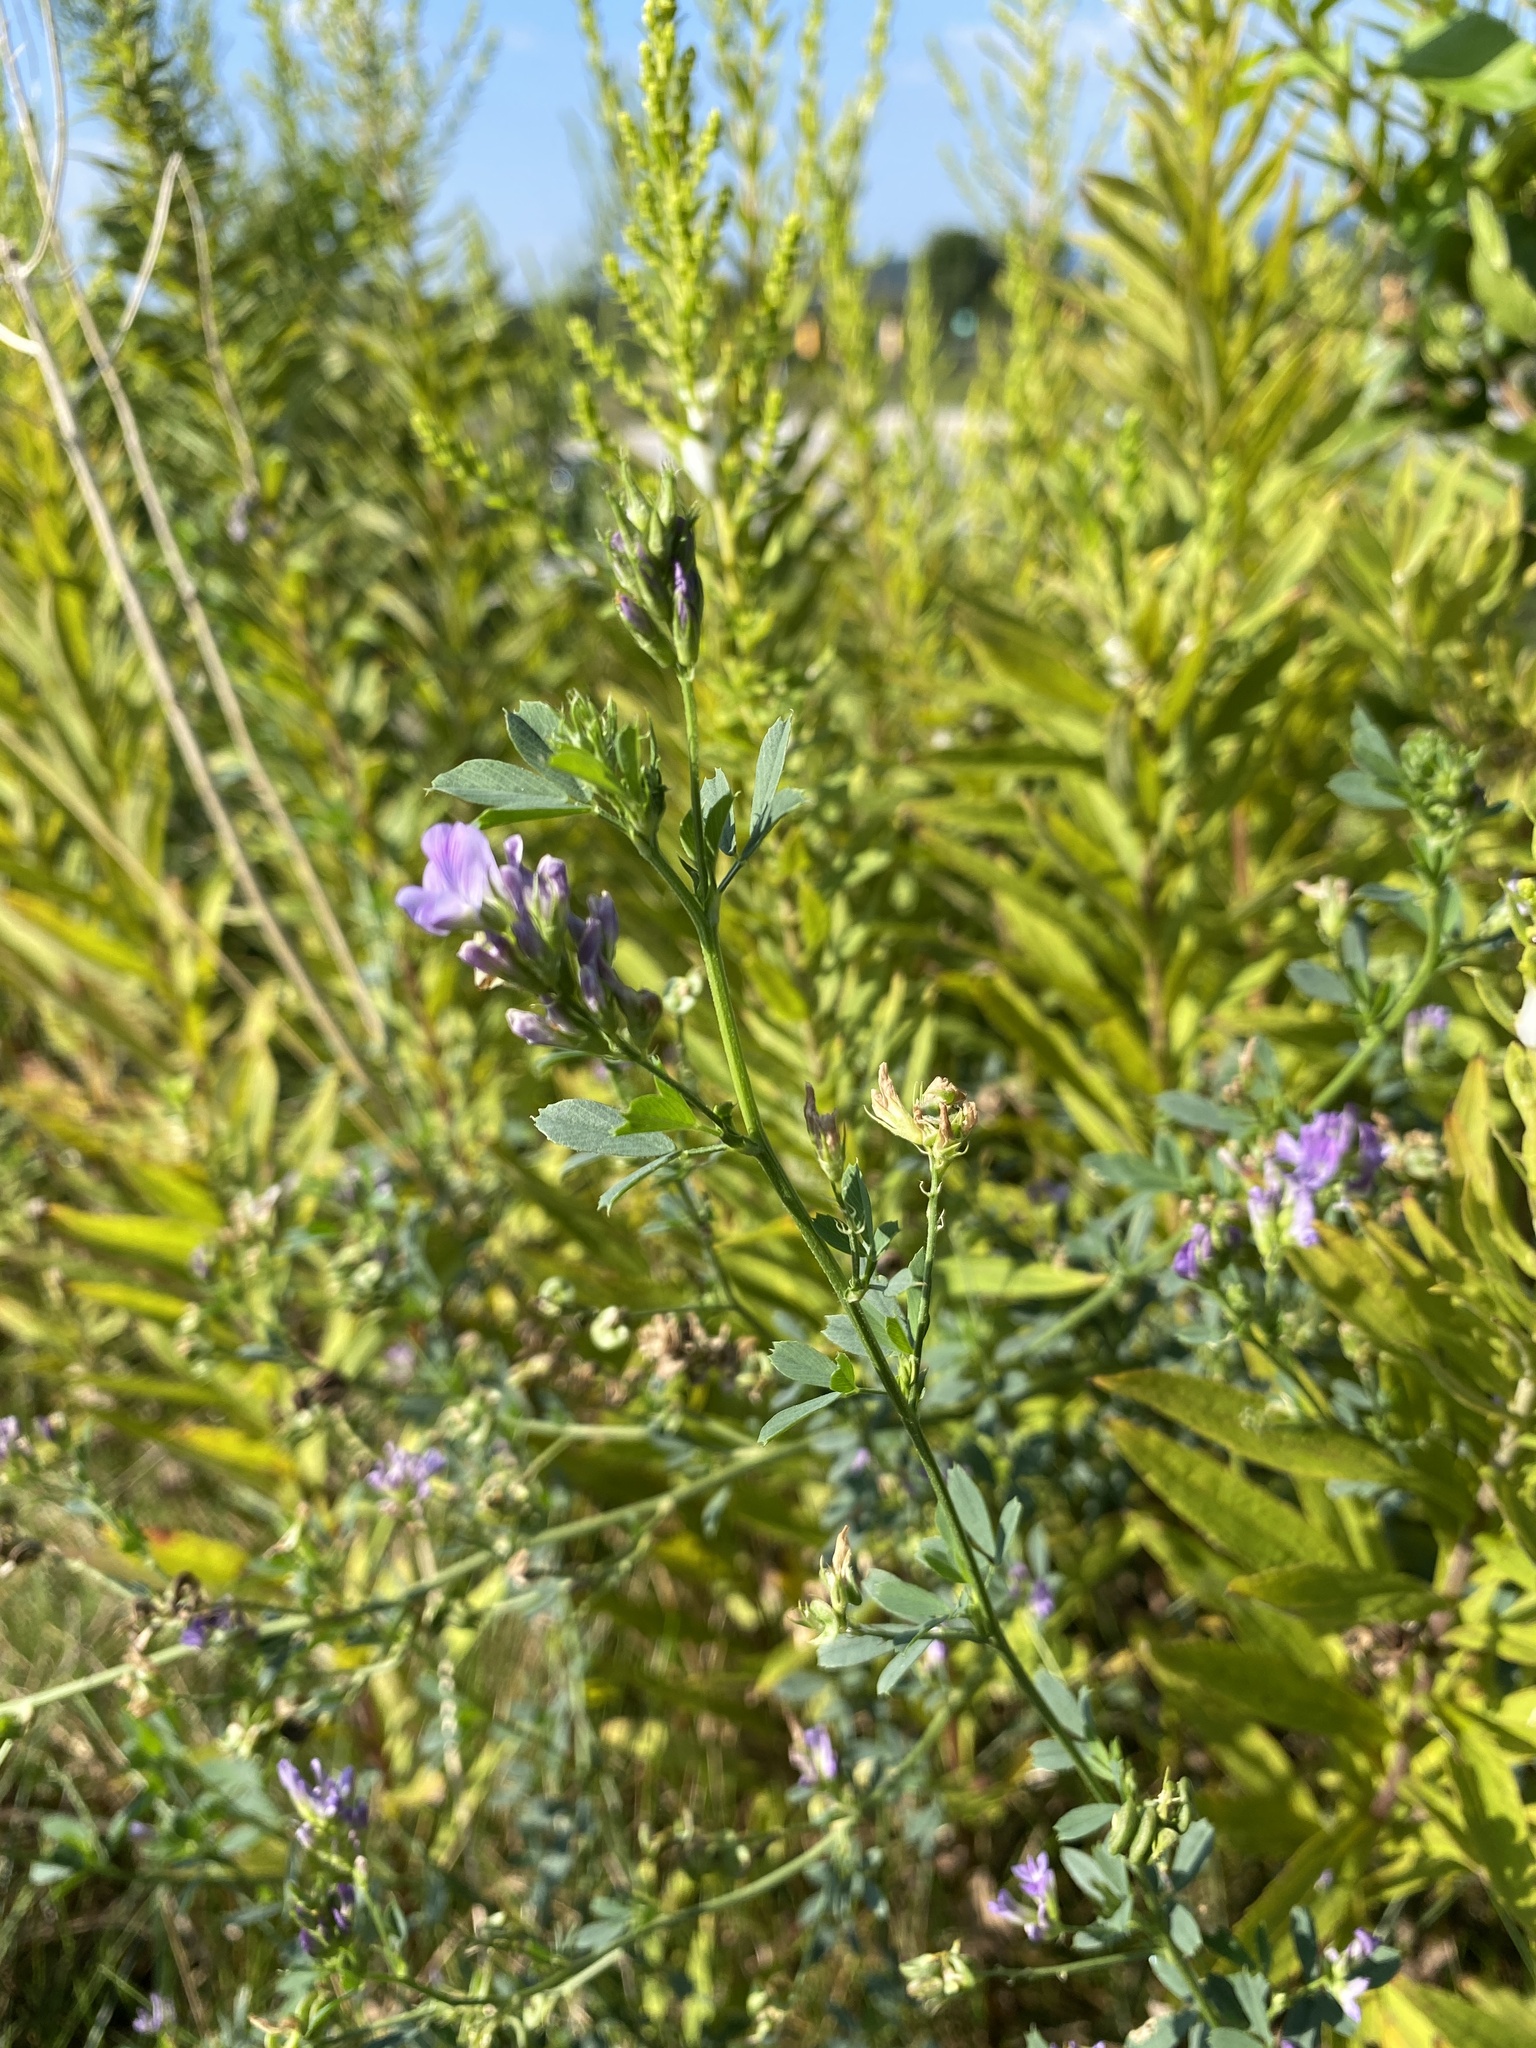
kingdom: Plantae
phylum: Tracheophyta
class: Magnoliopsida
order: Fabales
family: Fabaceae
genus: Medicago
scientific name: Medicago sativa
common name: Alfalfa
